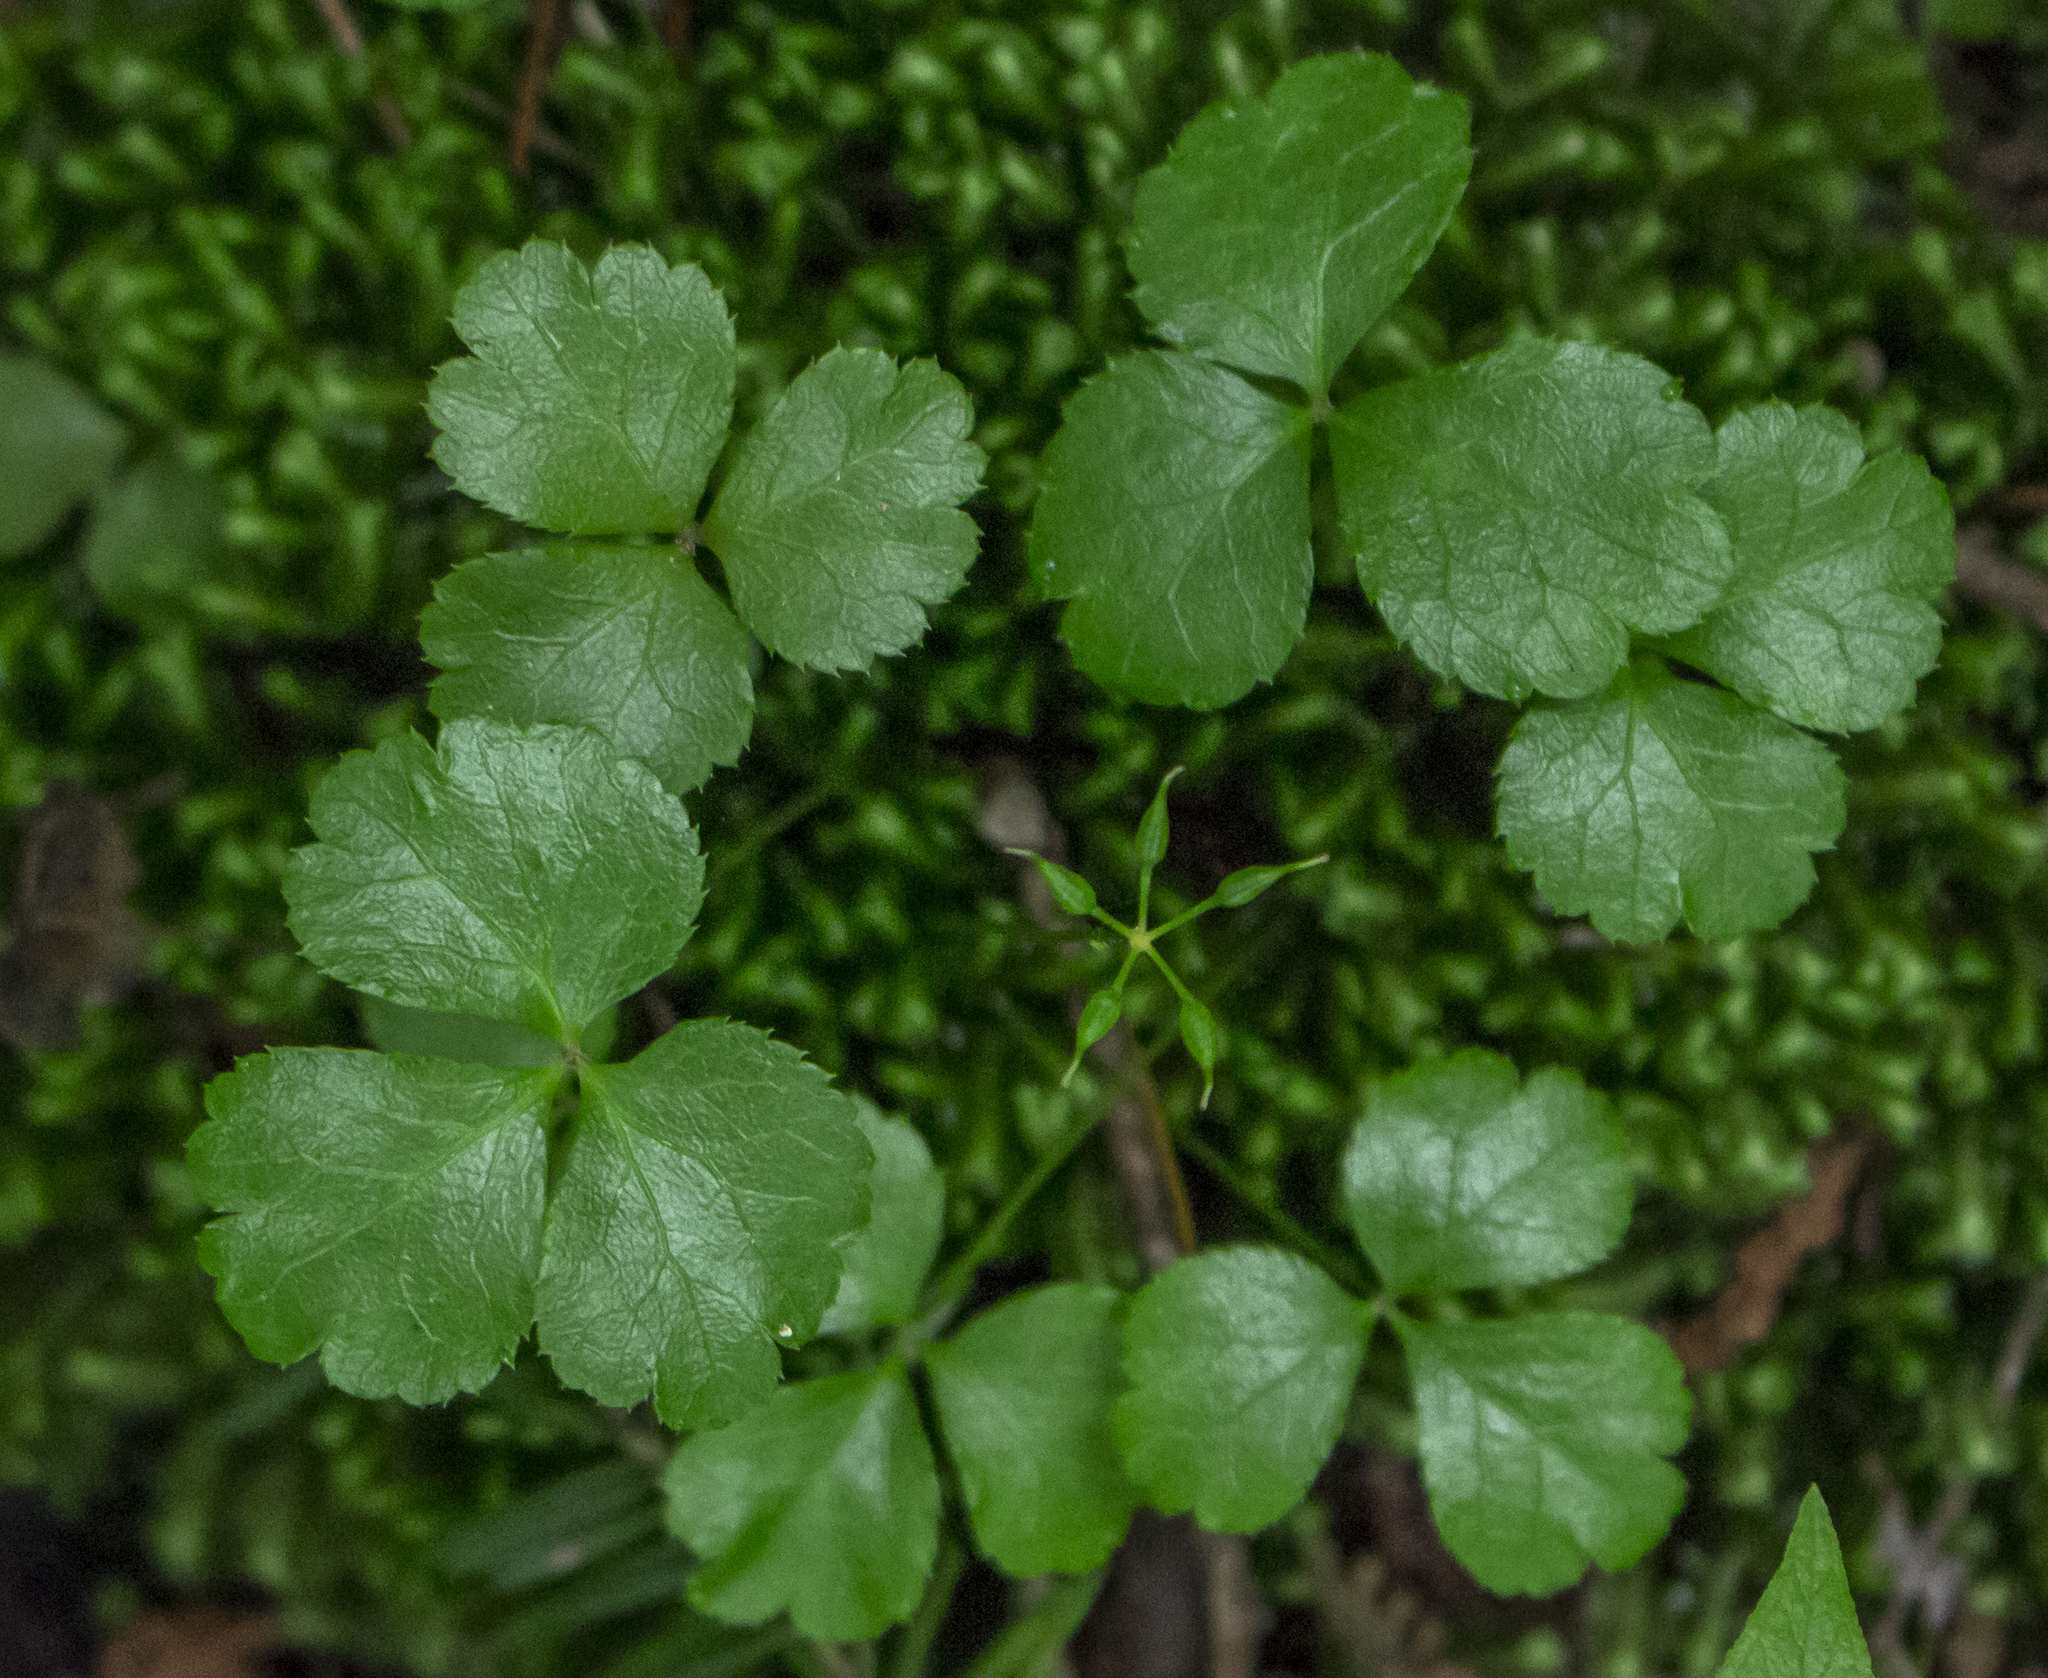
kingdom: Plantae
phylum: Tracheophyta
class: Magnoliopsida
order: Ranunculales
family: Ranunculaceae
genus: Coptis
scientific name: Coptis trifolia
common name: Canker-root
